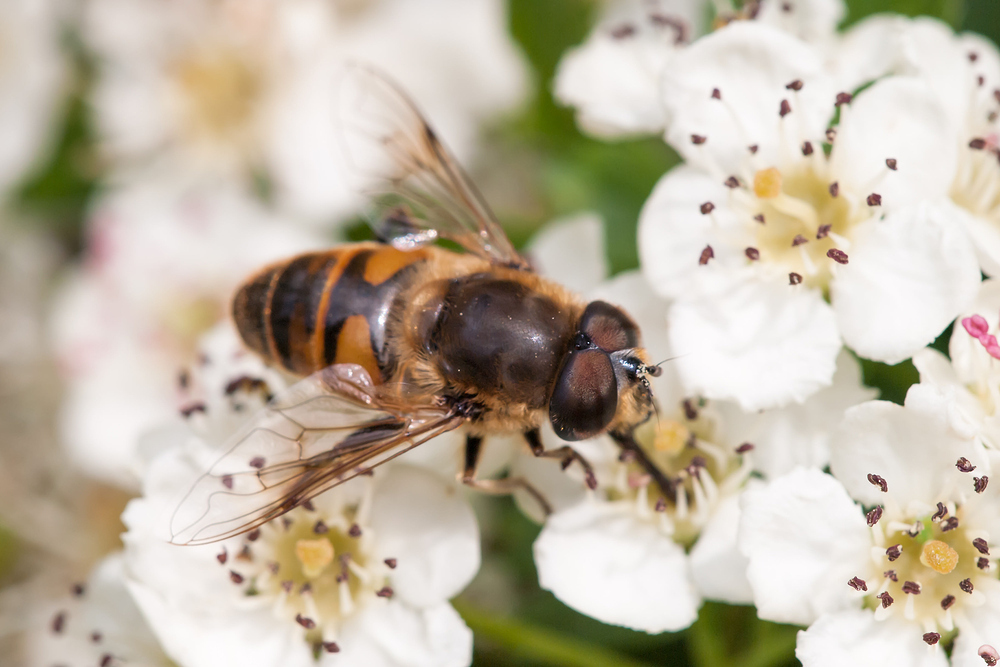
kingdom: Animalia
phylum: Arthropoda
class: Insecta
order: Diptera
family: Syrphidae
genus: Eristalis
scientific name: Eristalis tenax
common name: Drone fly
